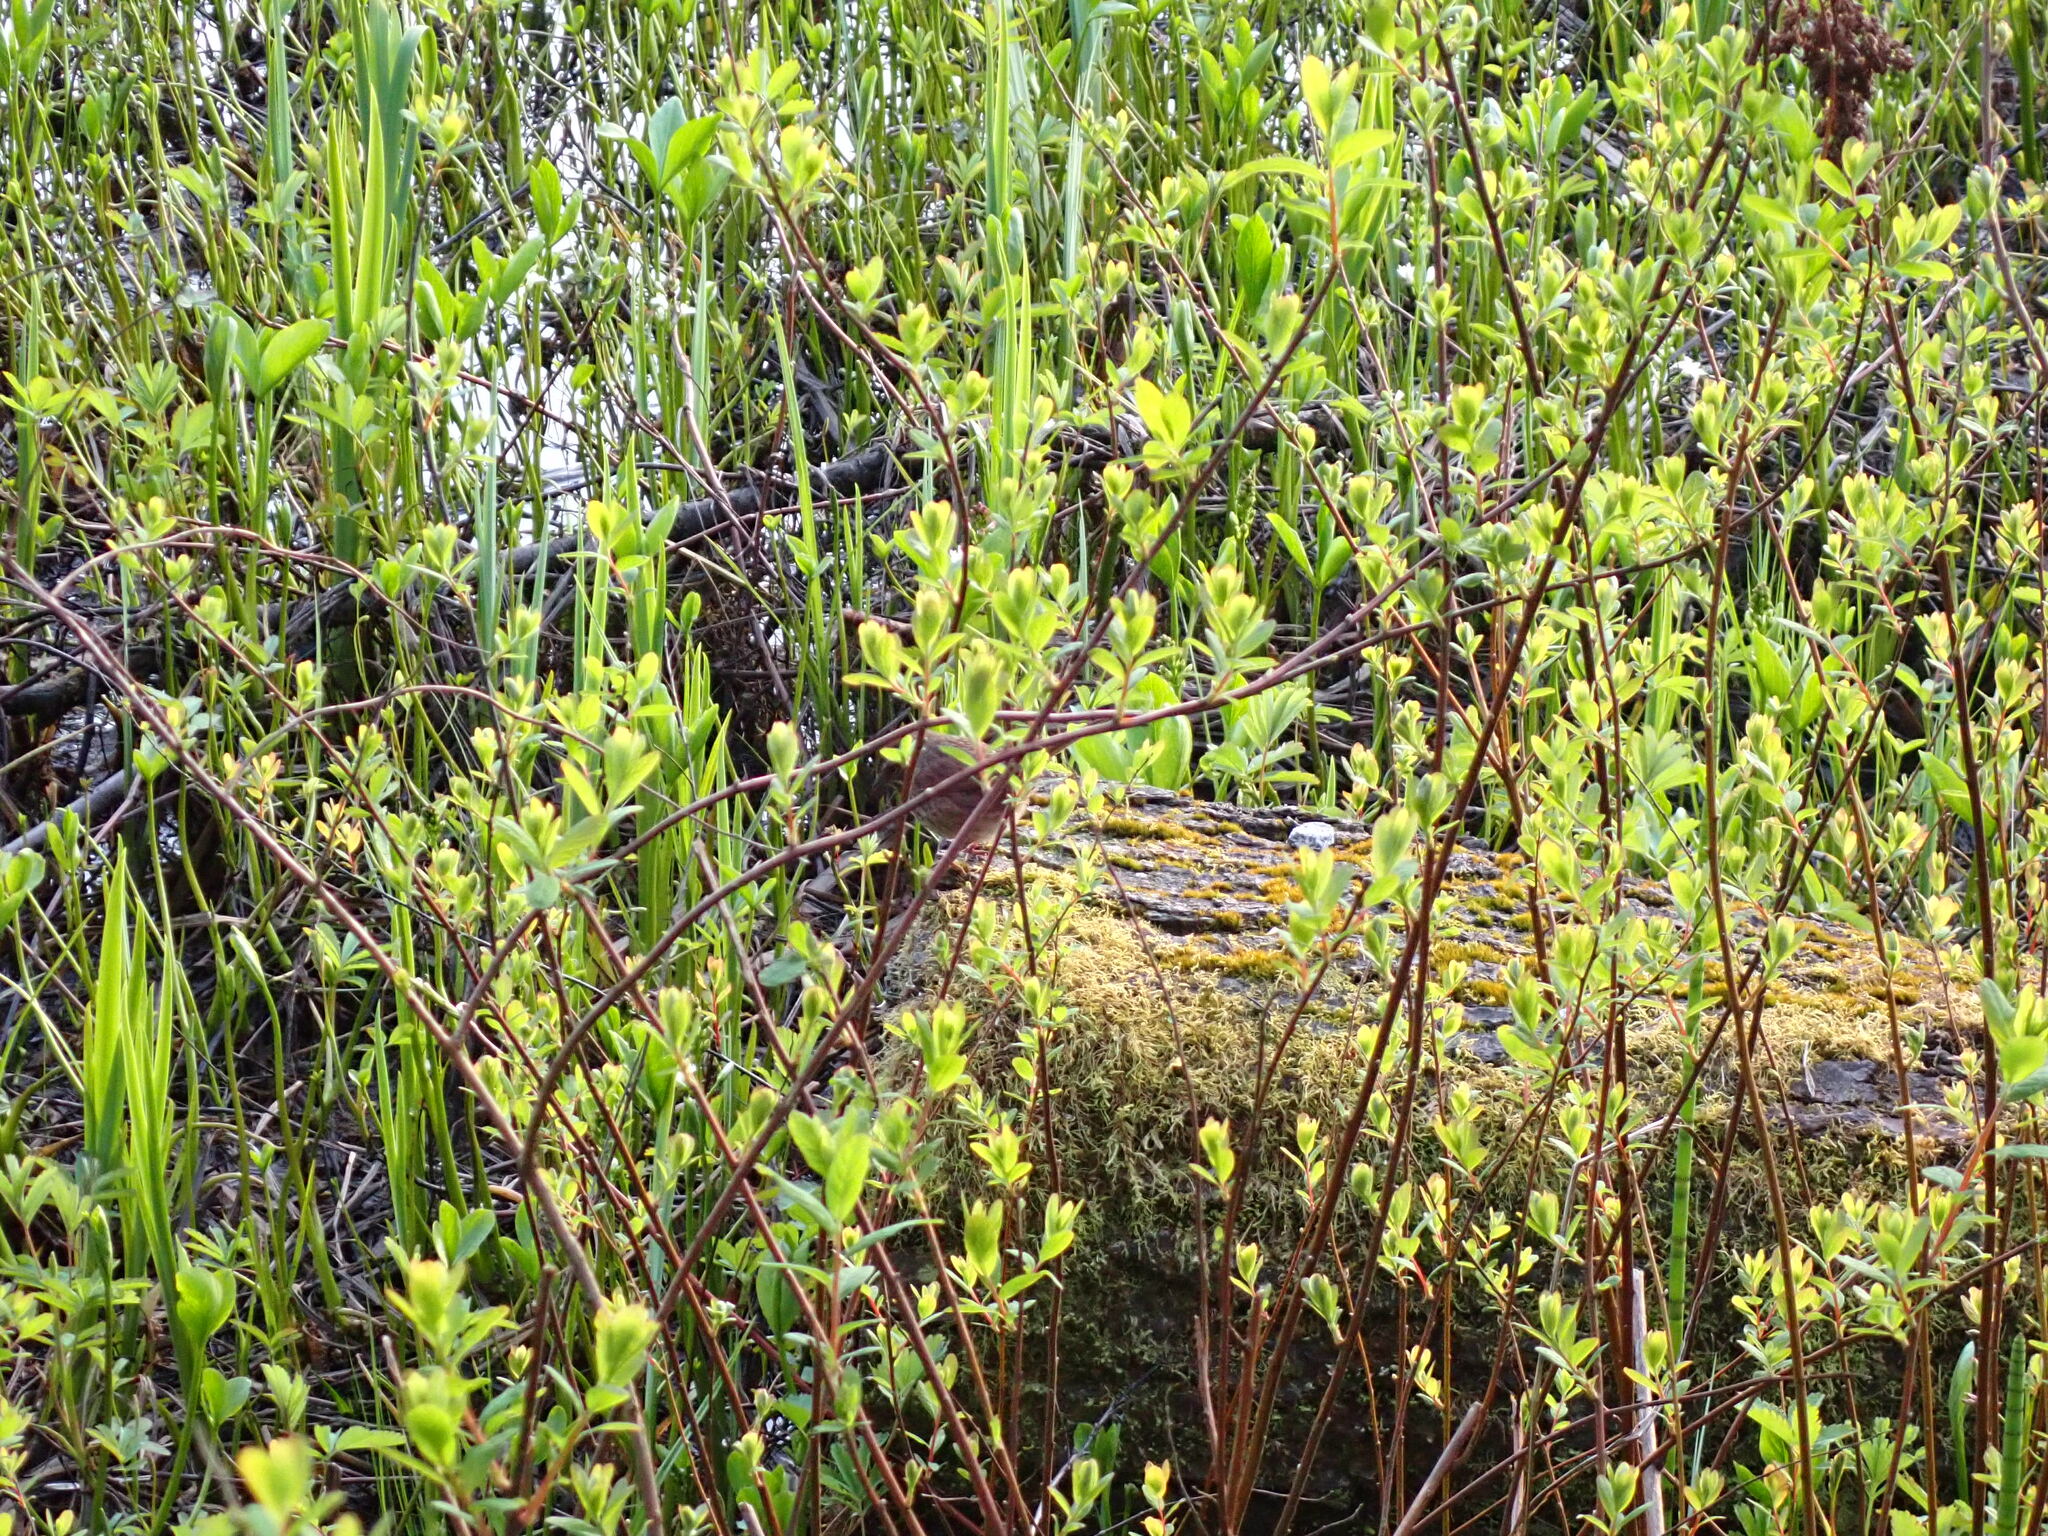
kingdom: Animalia
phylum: Chordata
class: Aves
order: Passeriformes
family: Passerellidae
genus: Melospiza
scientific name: Melospiza melodia
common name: Song sparrow
